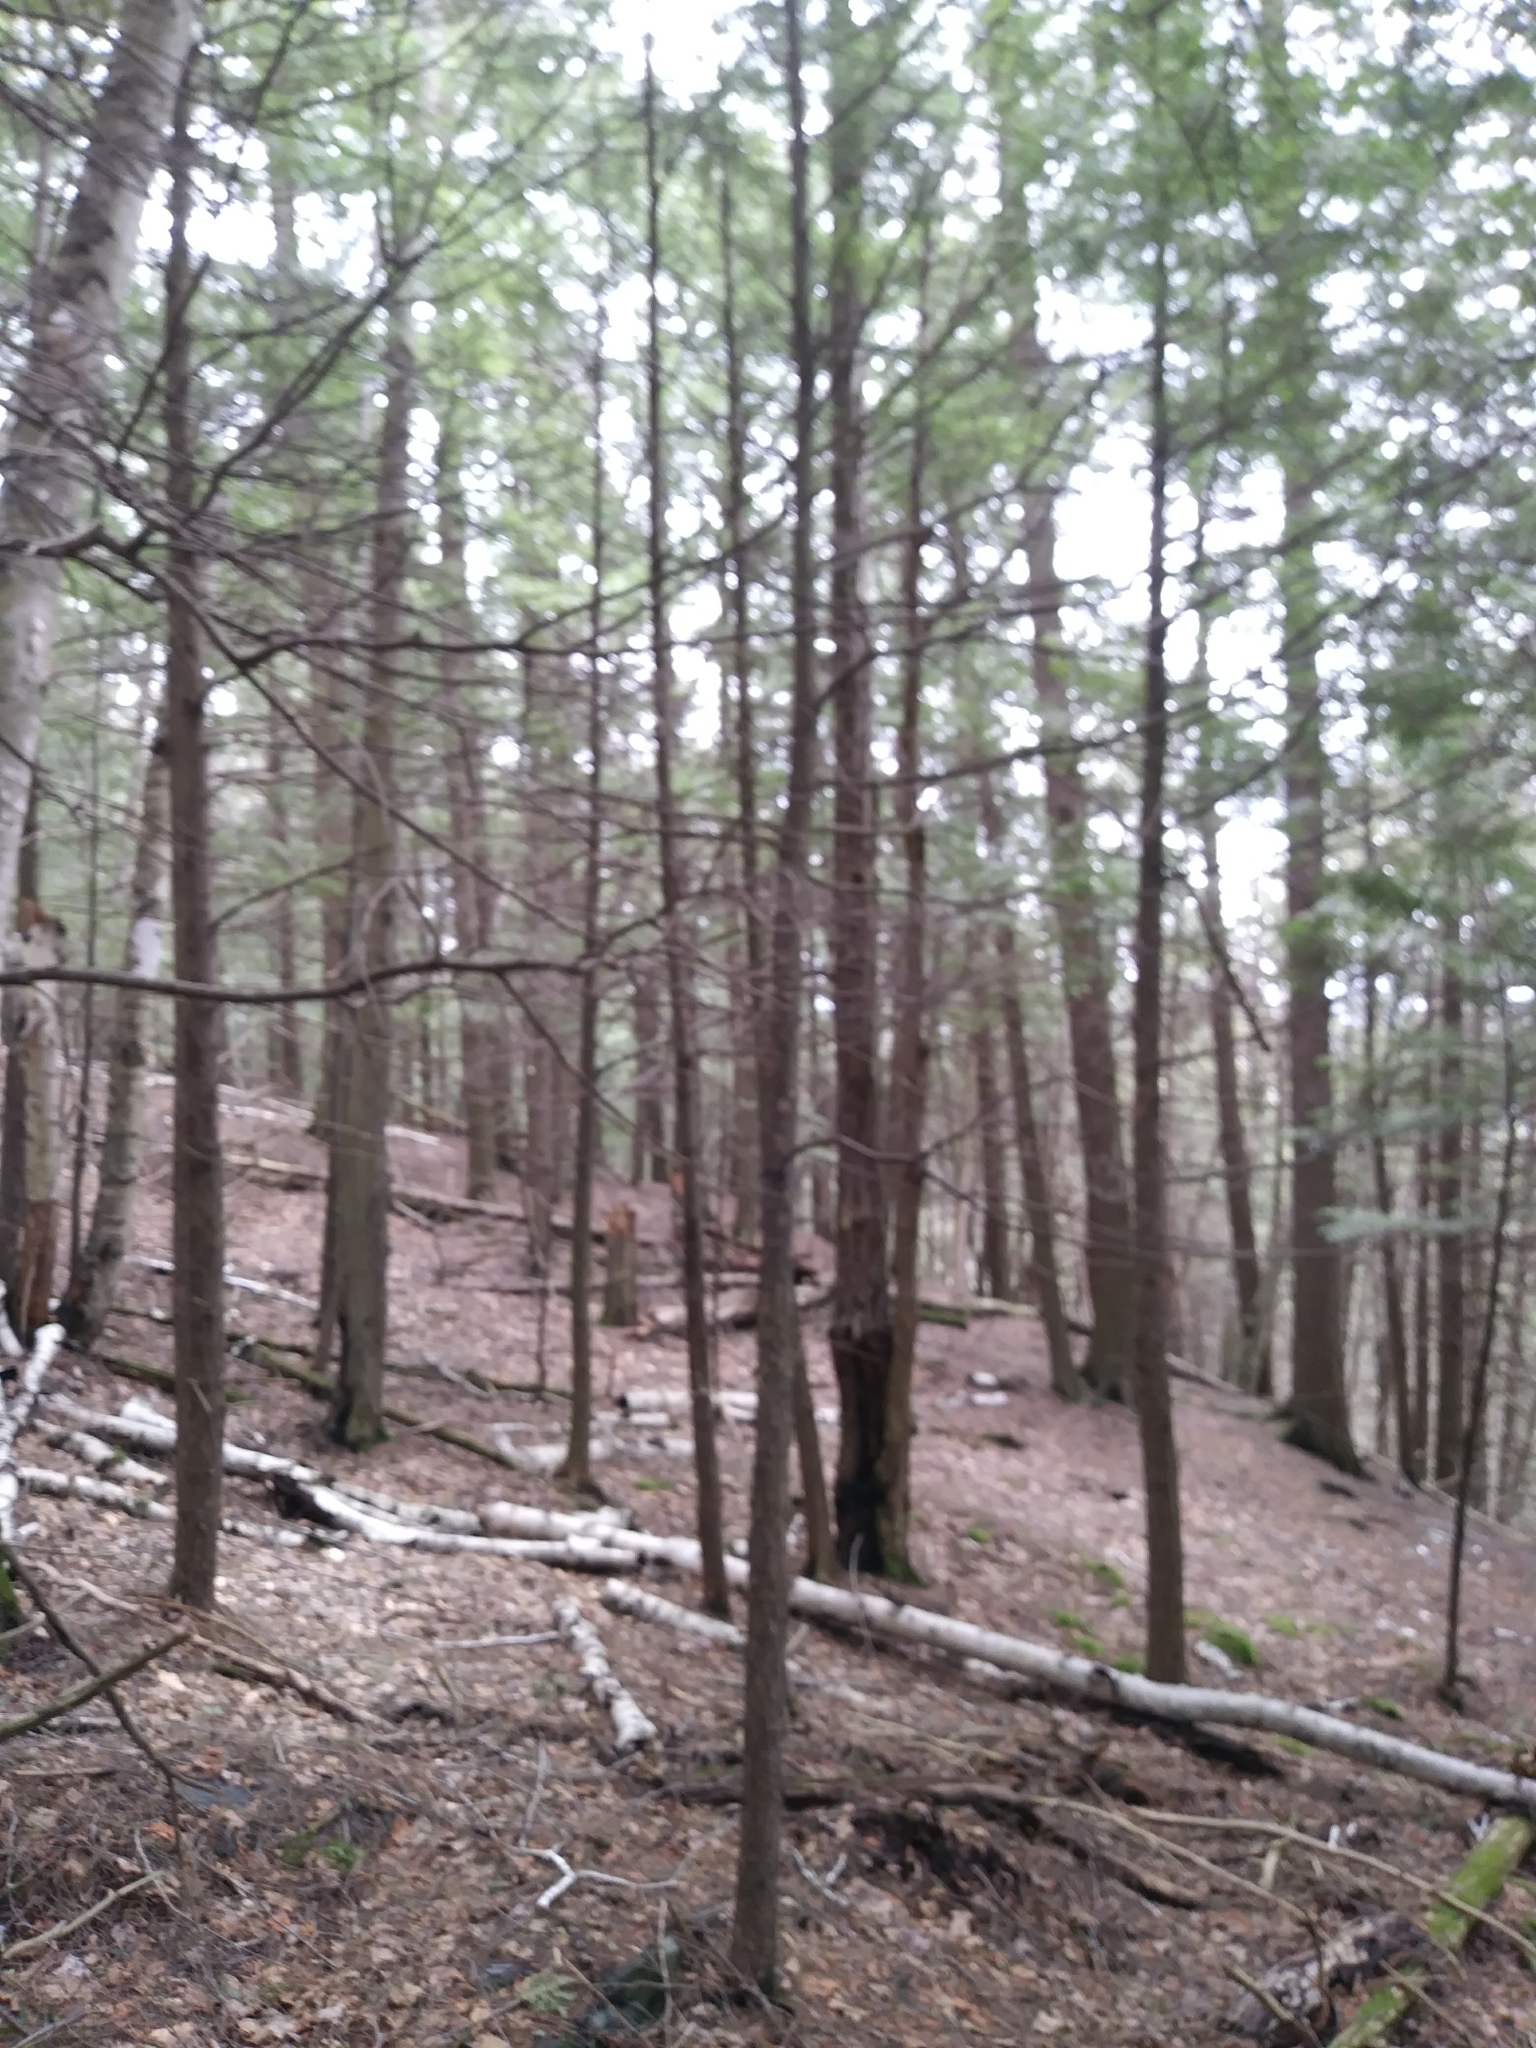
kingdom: Plantae
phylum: Tracheophyta
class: Pinopsida
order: Pinales
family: Pinaceae
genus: Tsuga
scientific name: Tsuga canadensis
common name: Eastern hemlock
